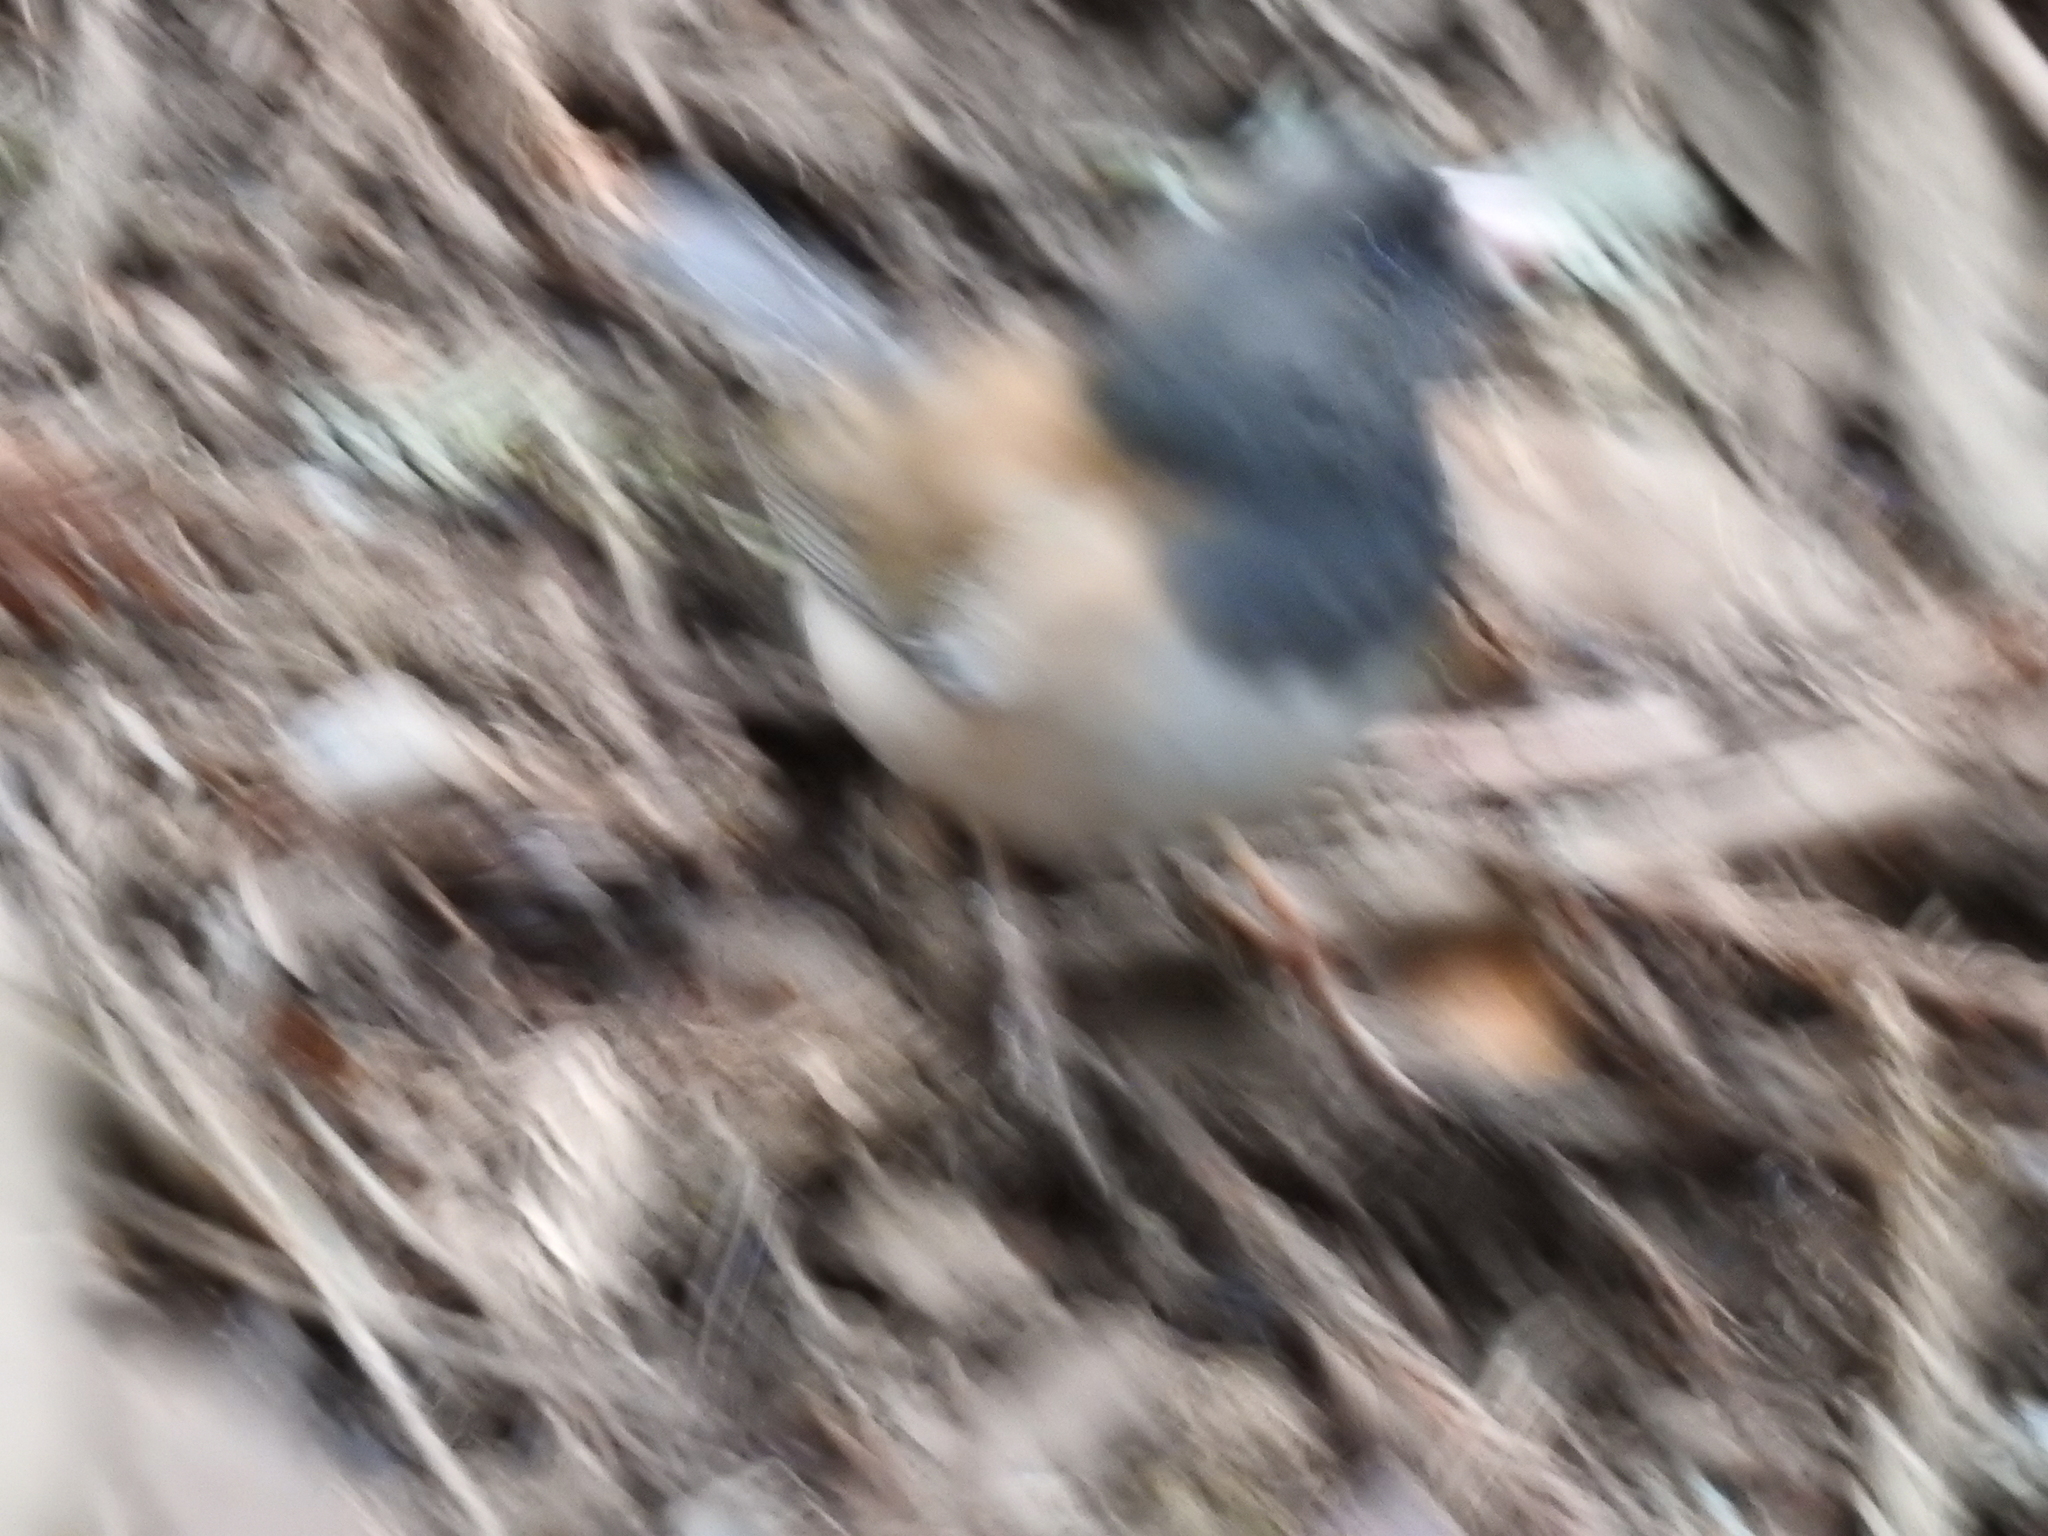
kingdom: Animalia
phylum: Chordata
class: Aves
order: Passeriformes
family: Passerellidae
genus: Junco
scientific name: Junco hyemalis
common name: Dark-eyed junco
